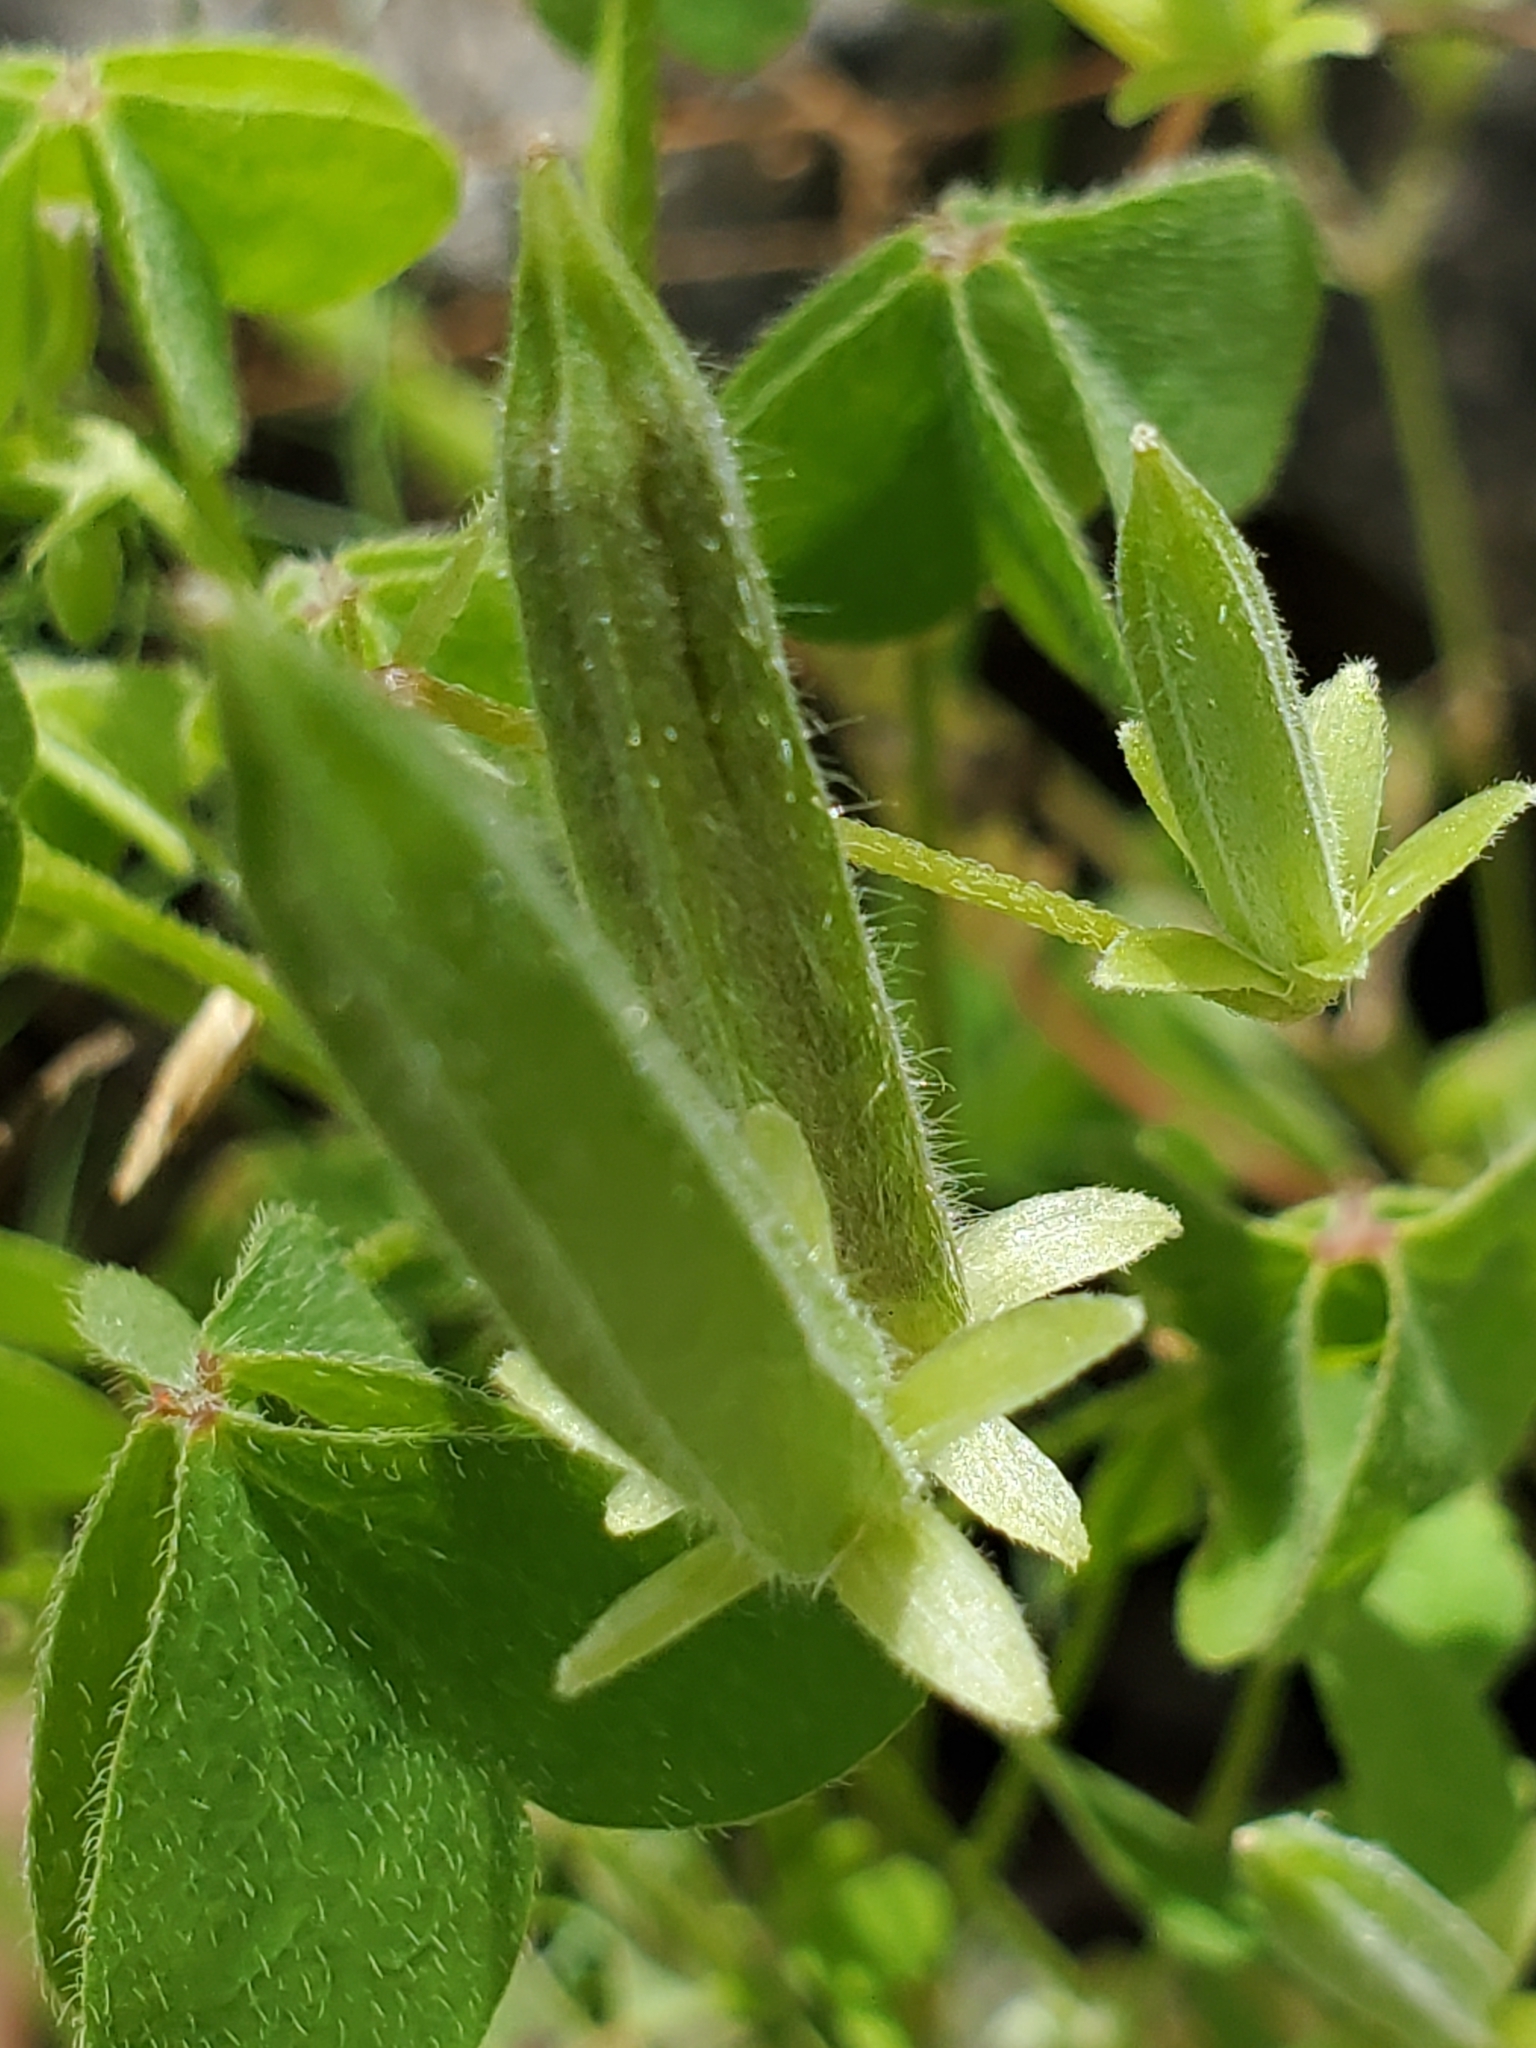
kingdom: Plantae
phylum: Tracheophyta
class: Magnoliopsida
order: Oxalidales
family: Oxalidaceae
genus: Oxalis
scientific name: Oxalis dillenii
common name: Sussex yellow-sorrel
